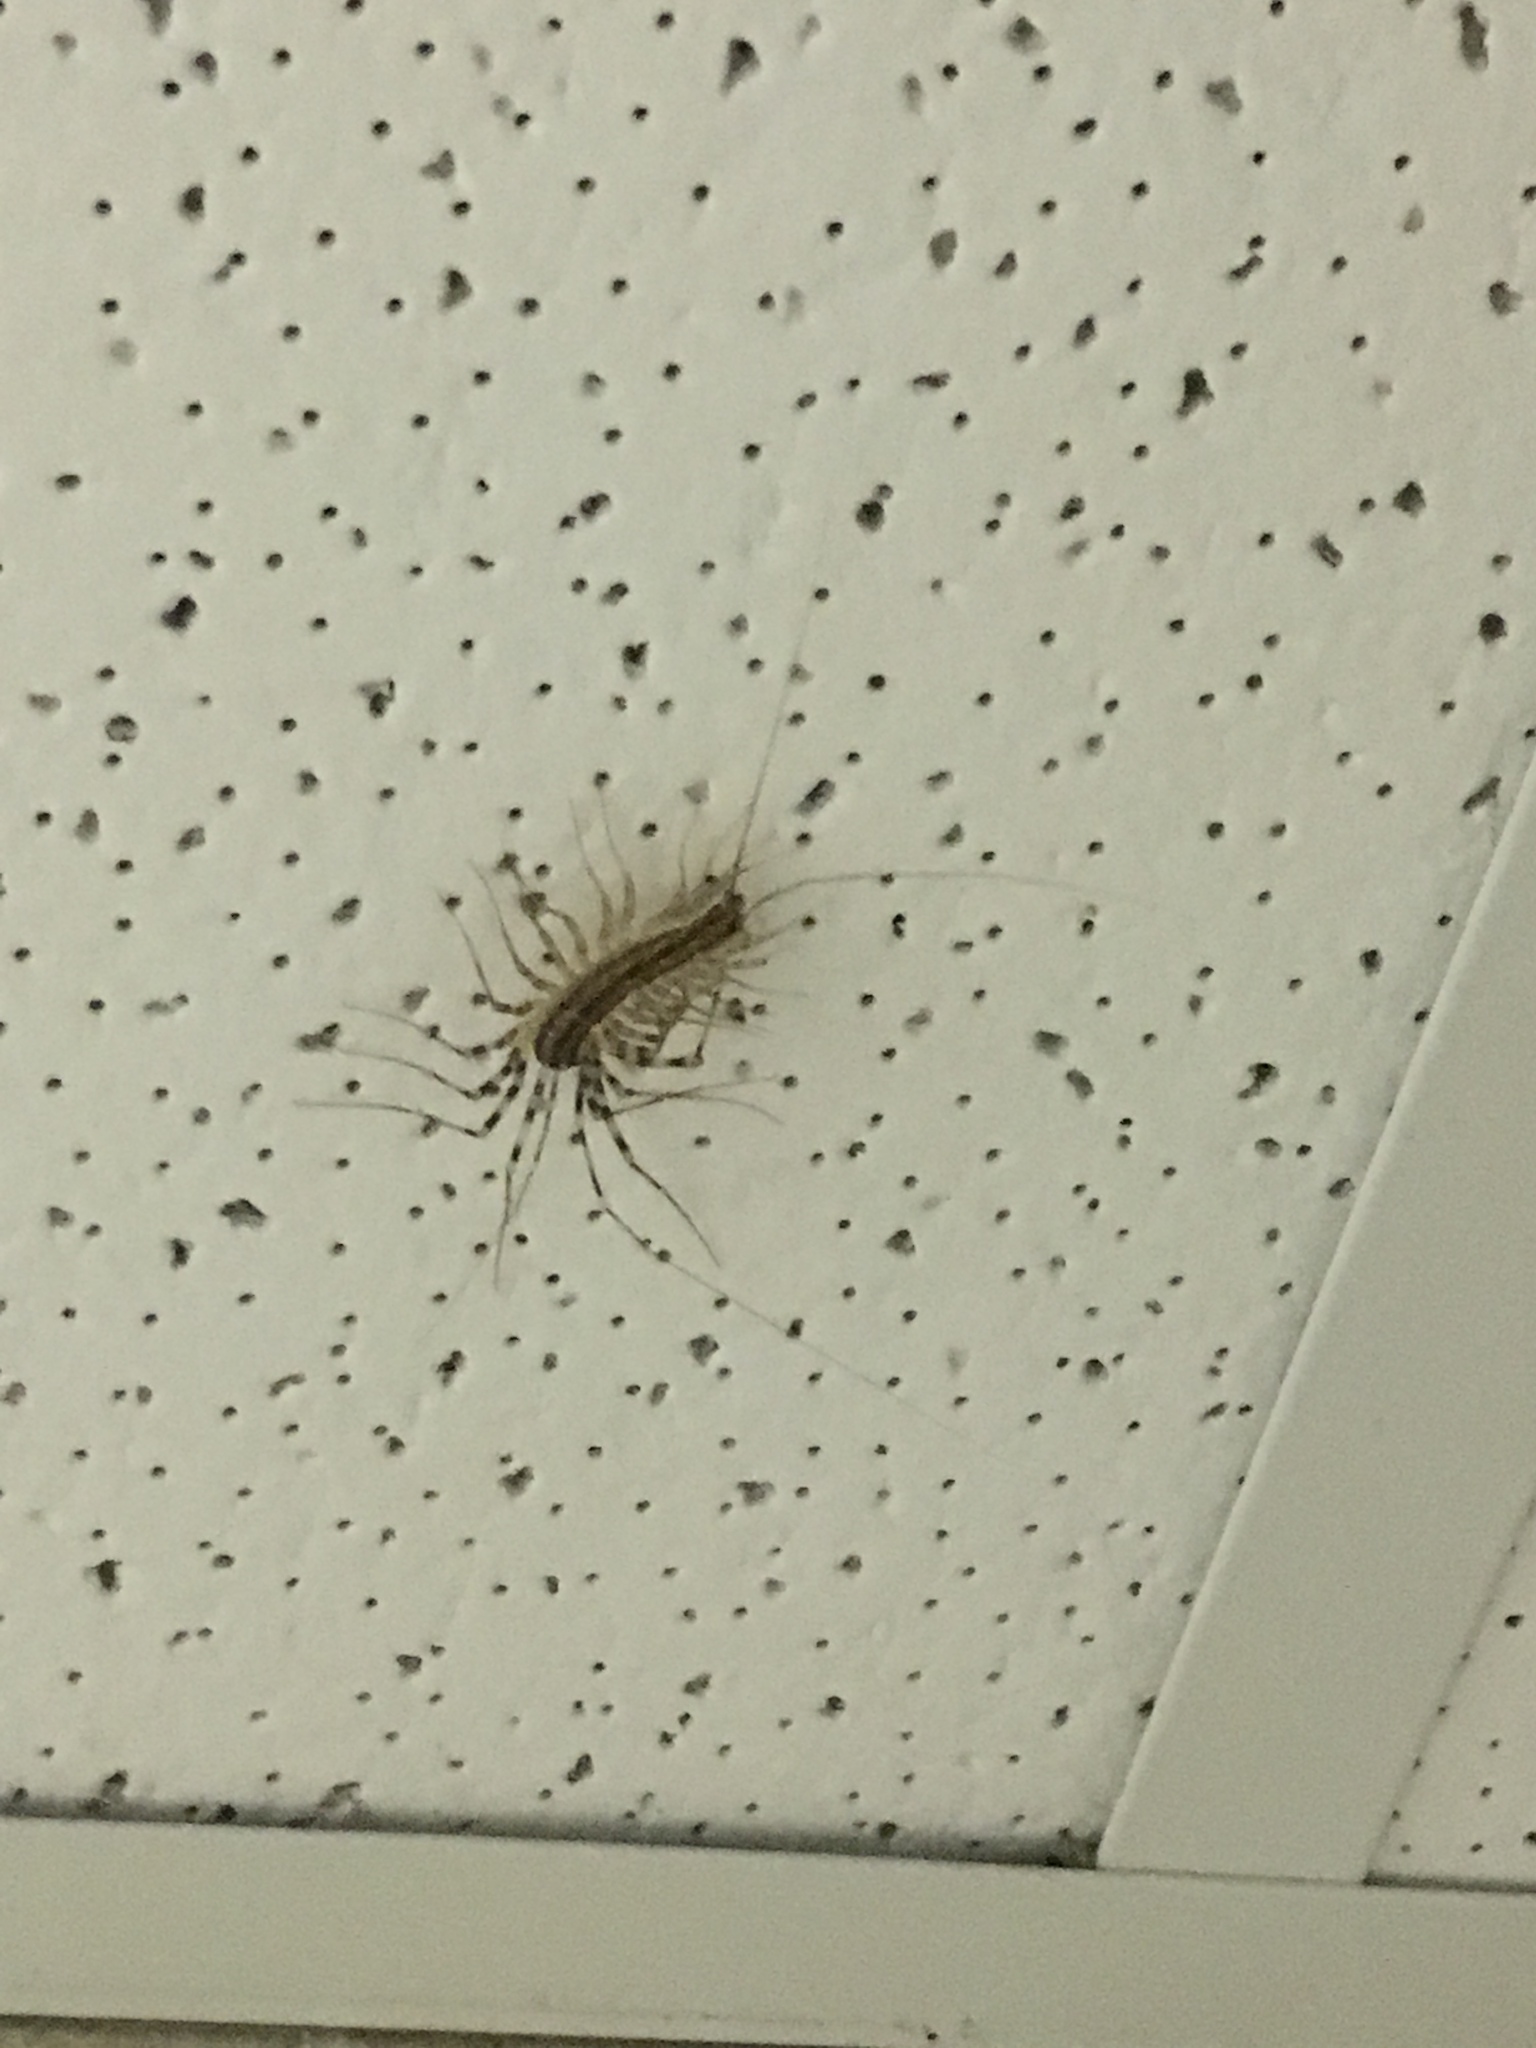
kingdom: Animalia
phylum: Arthropoda
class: Chilopoda
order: Scutigeromorpha
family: Scutigeridae
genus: Scutigera
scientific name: Scutigera coleoptrata
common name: House centipede
